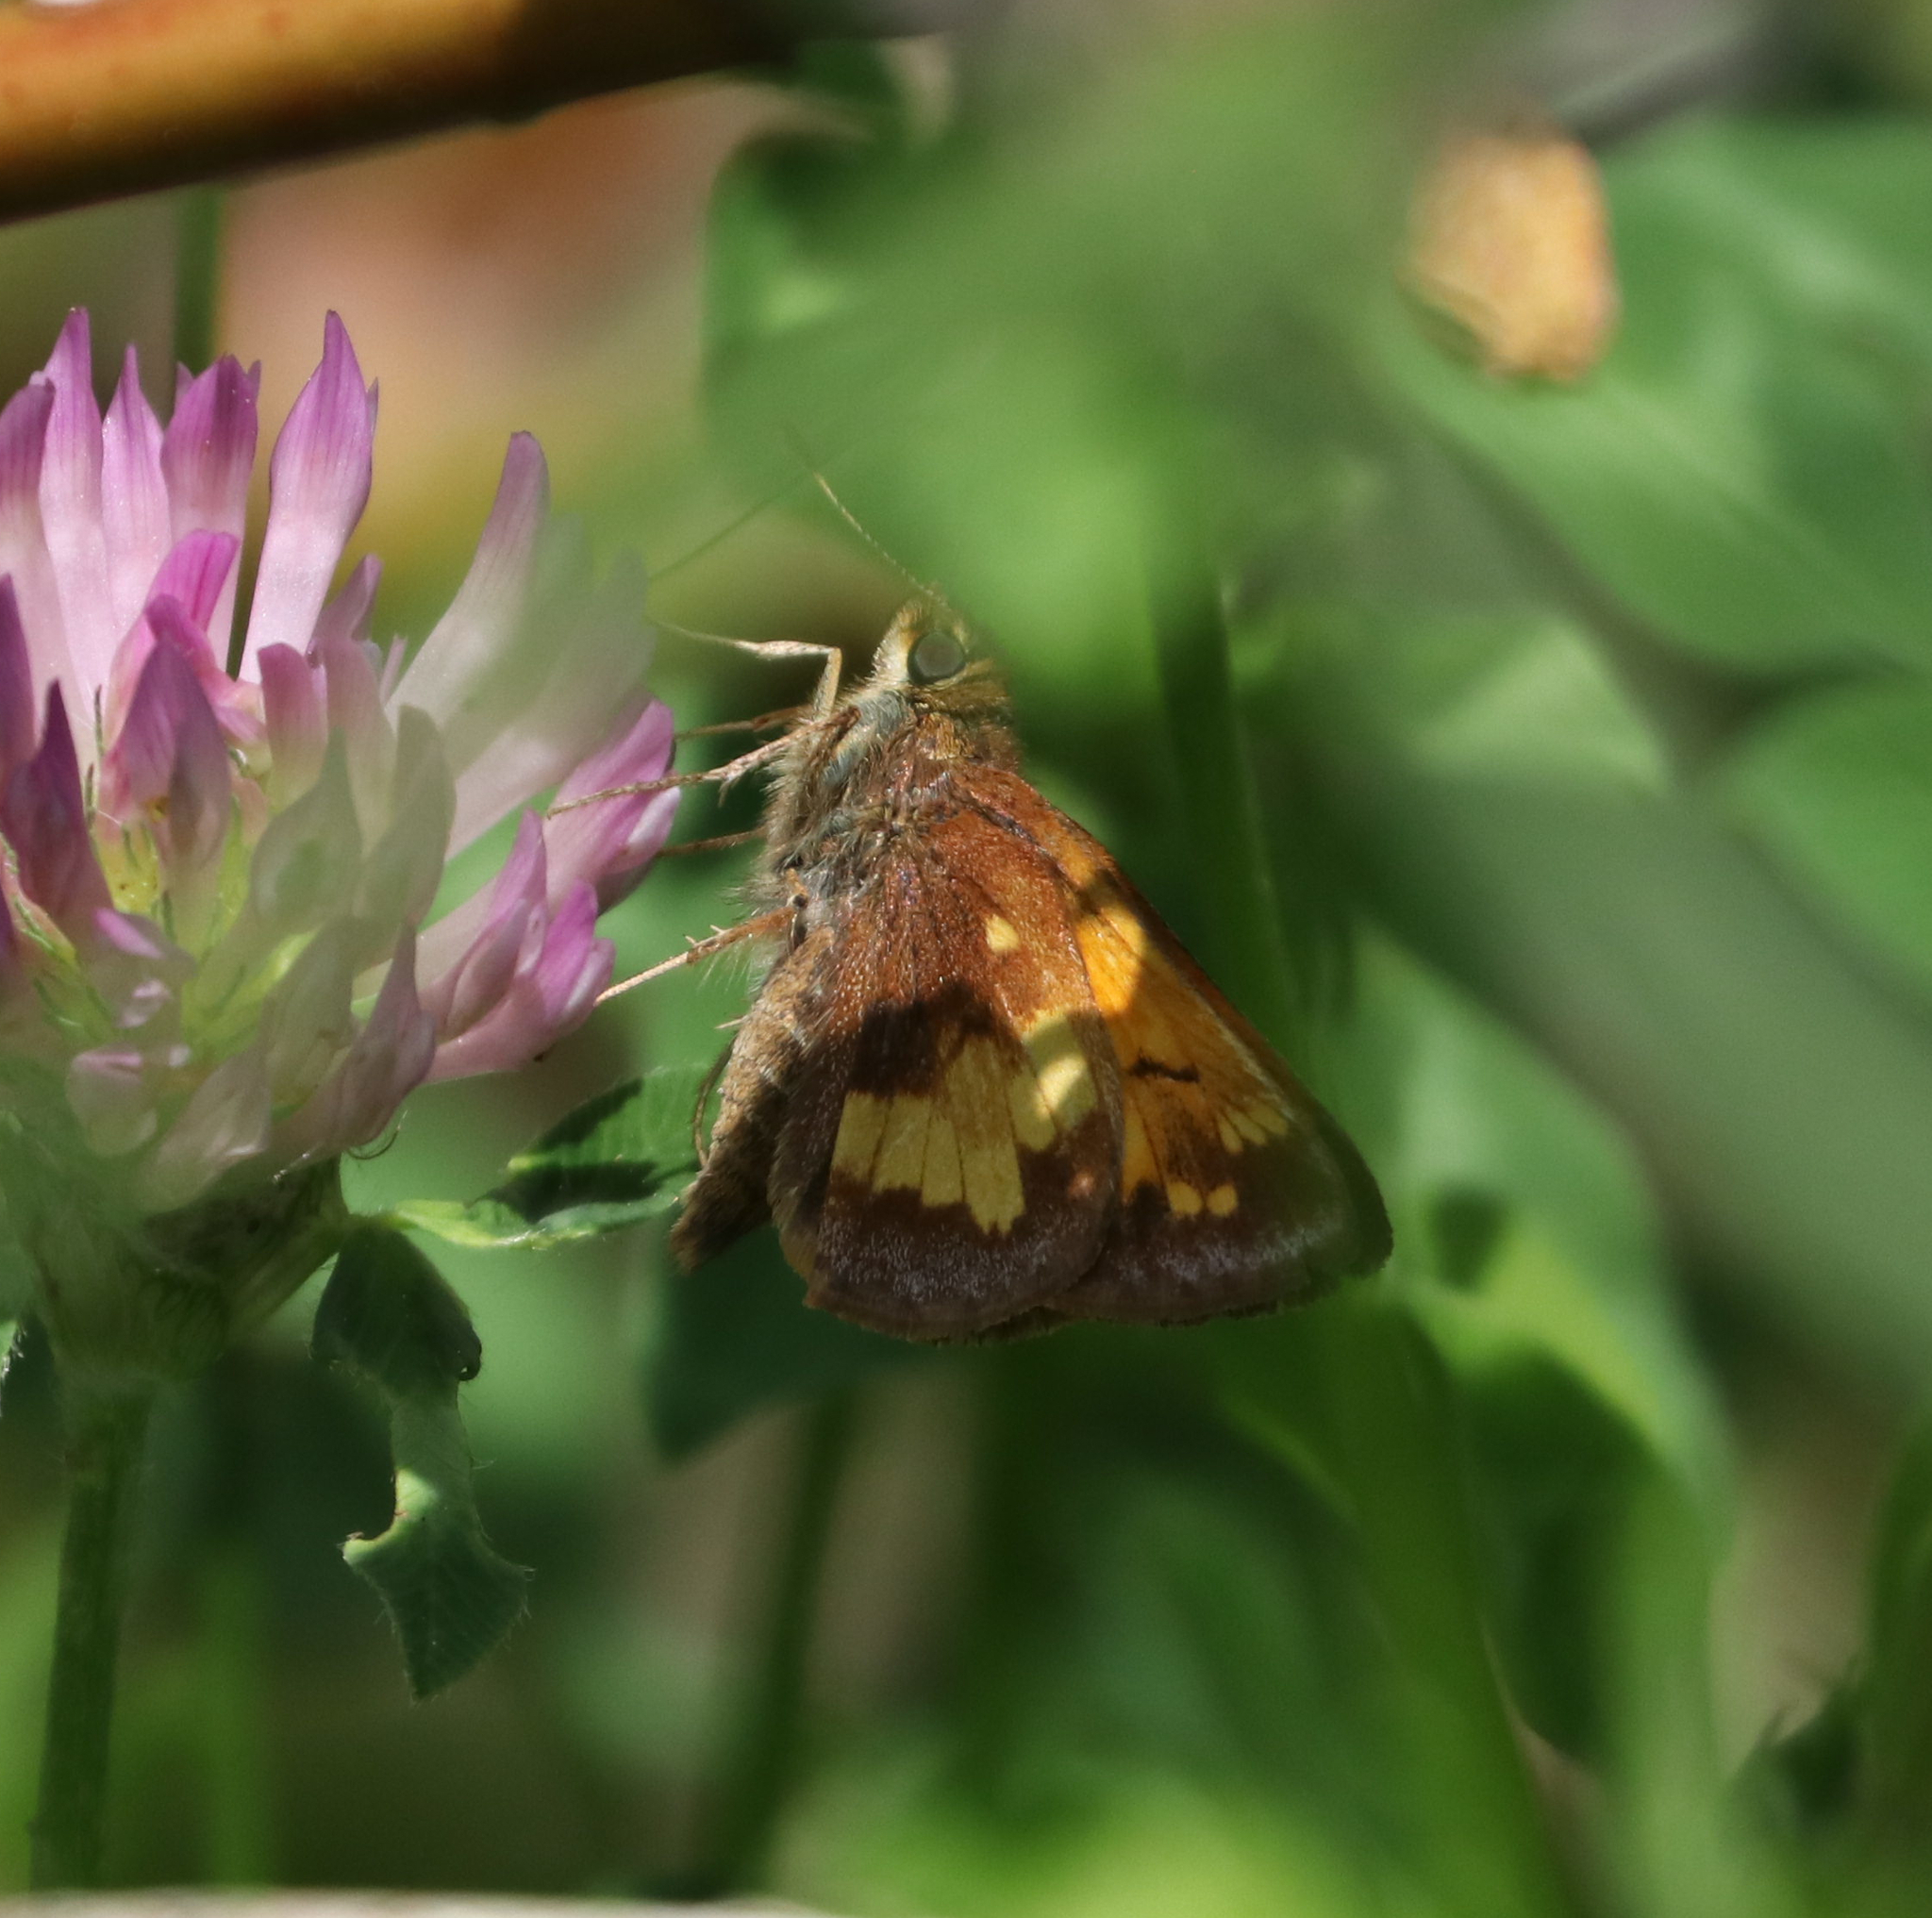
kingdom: Animalia
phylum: Arthropoda
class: Insecta
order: Lepidoptera
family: Hesperiidae
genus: Lon
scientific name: Lon hobomok
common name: Hobomok skipper
